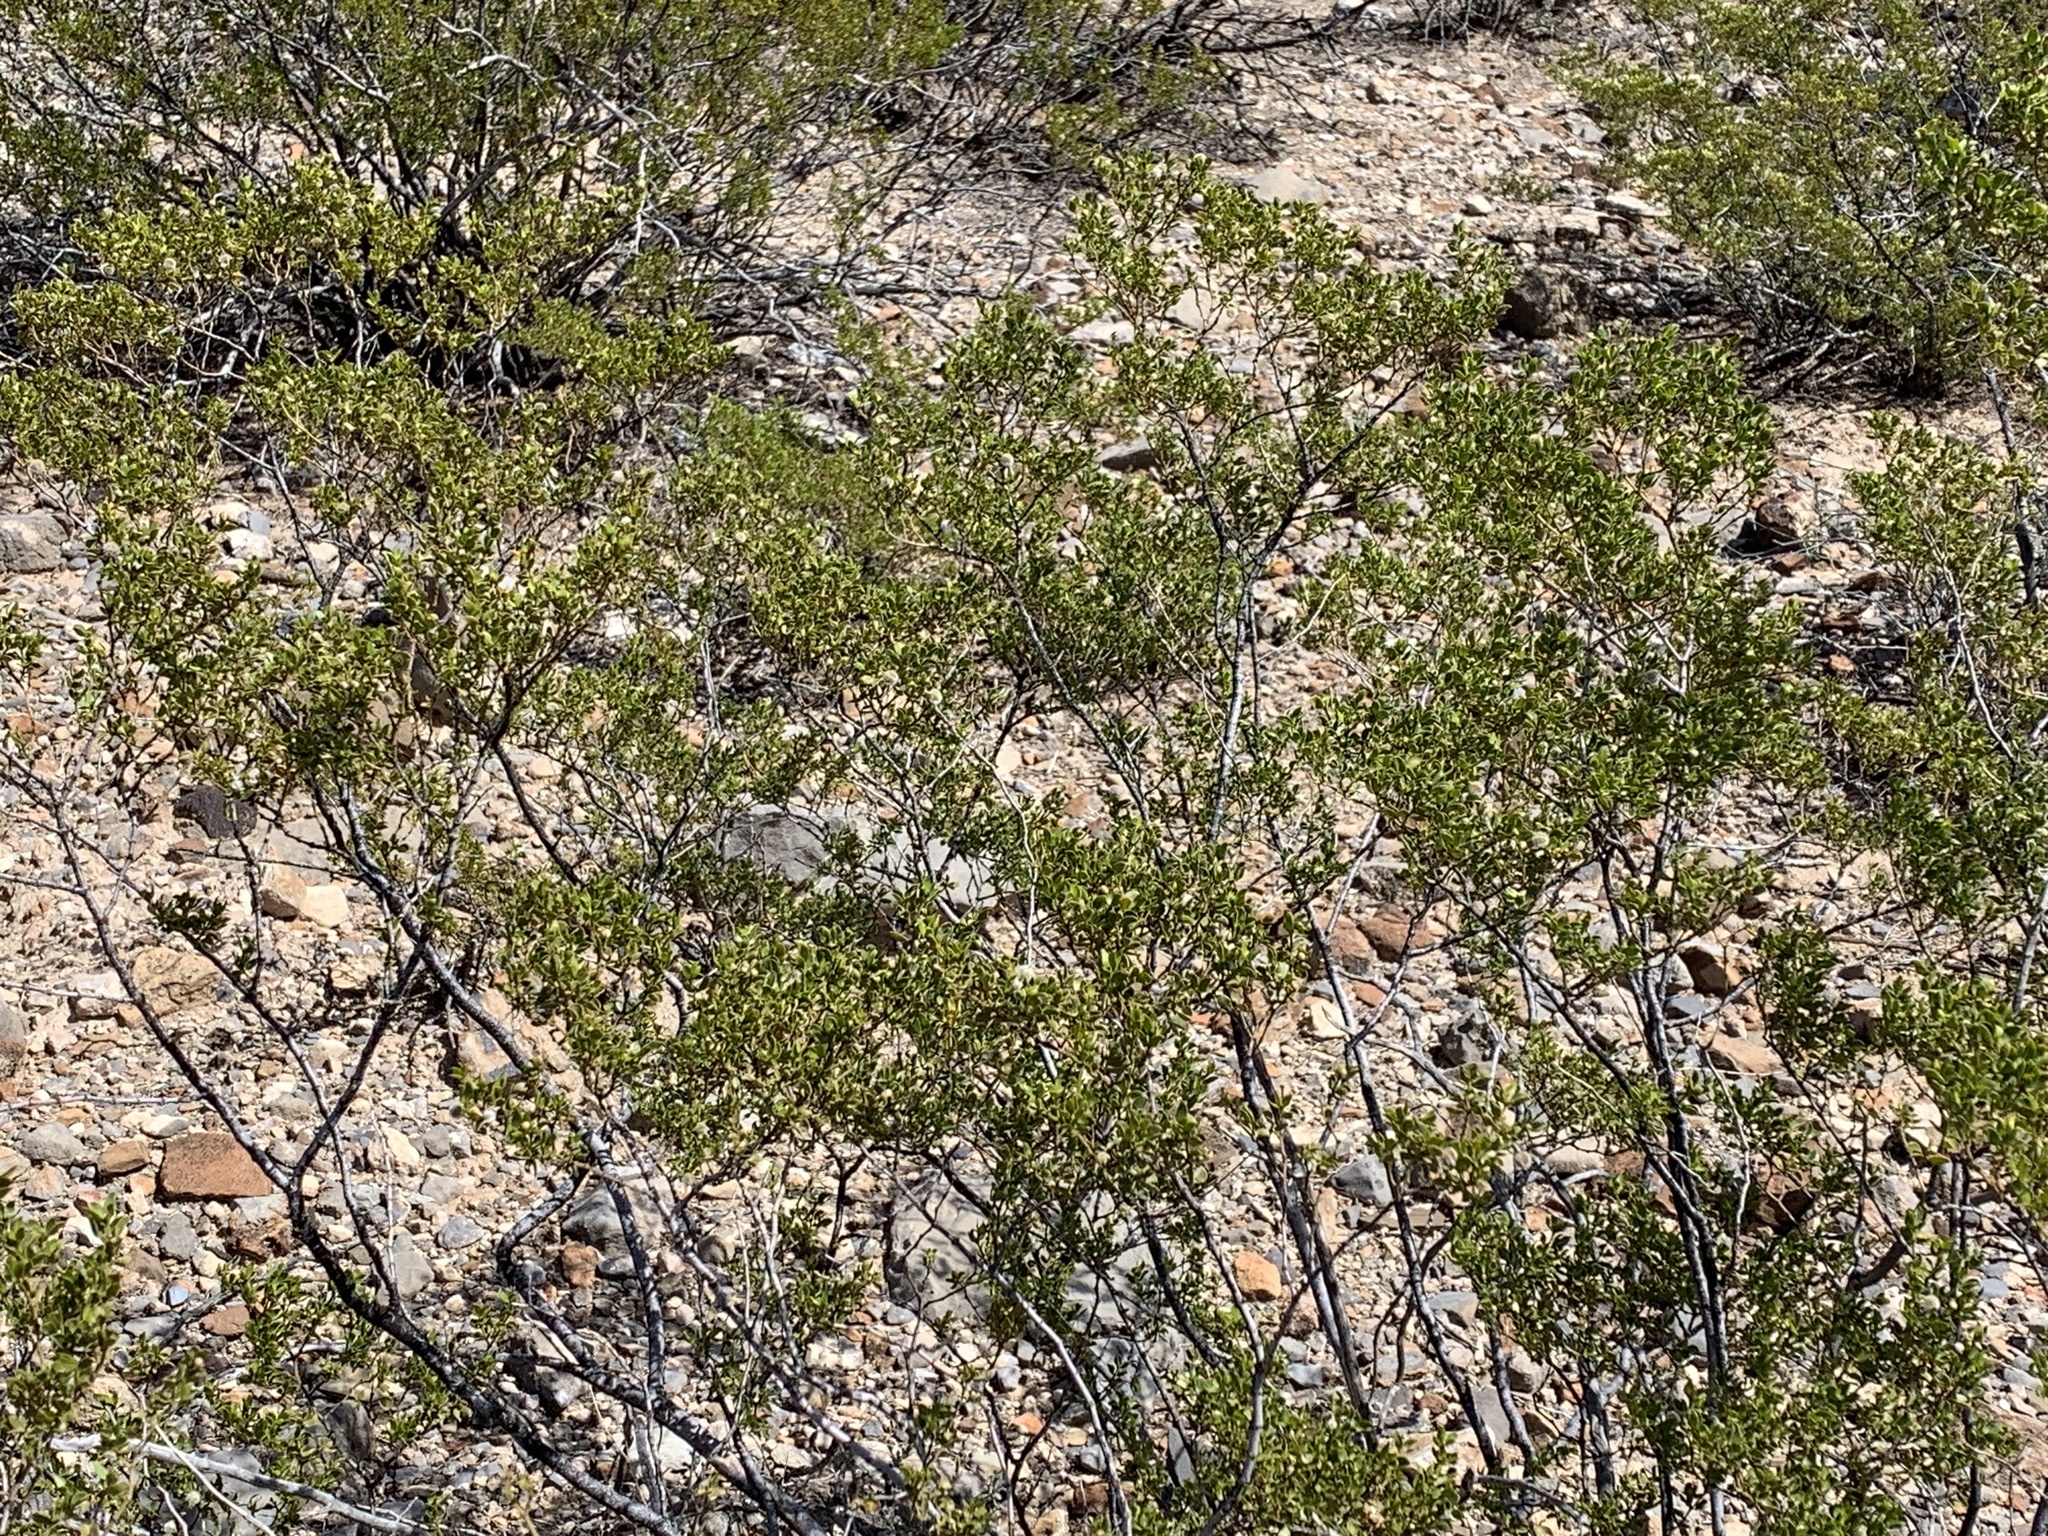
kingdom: Plantae
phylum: Tracheophyta
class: Magnoliopsida
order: Zygophyllales
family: Zygophyllaceae
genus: Larrea
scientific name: Larrea tridentata
